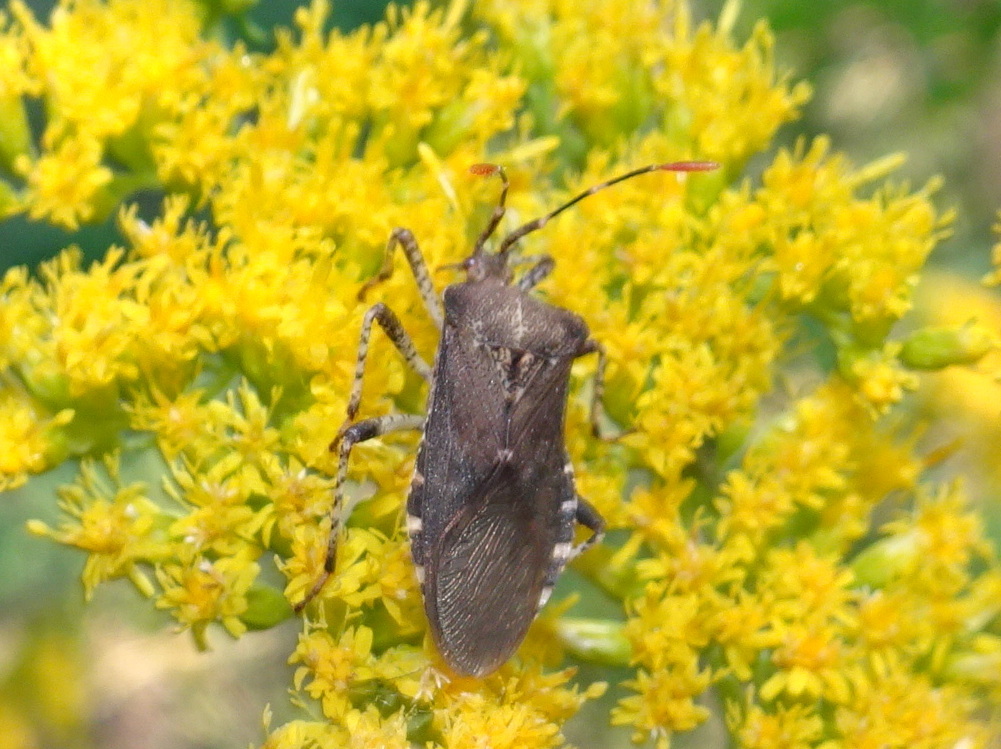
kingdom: Animalia
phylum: Arthropoda
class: Insecta
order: Hemiptera
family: Coreidae
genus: Anasa
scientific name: Anasa armigera
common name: Horned squash bug
